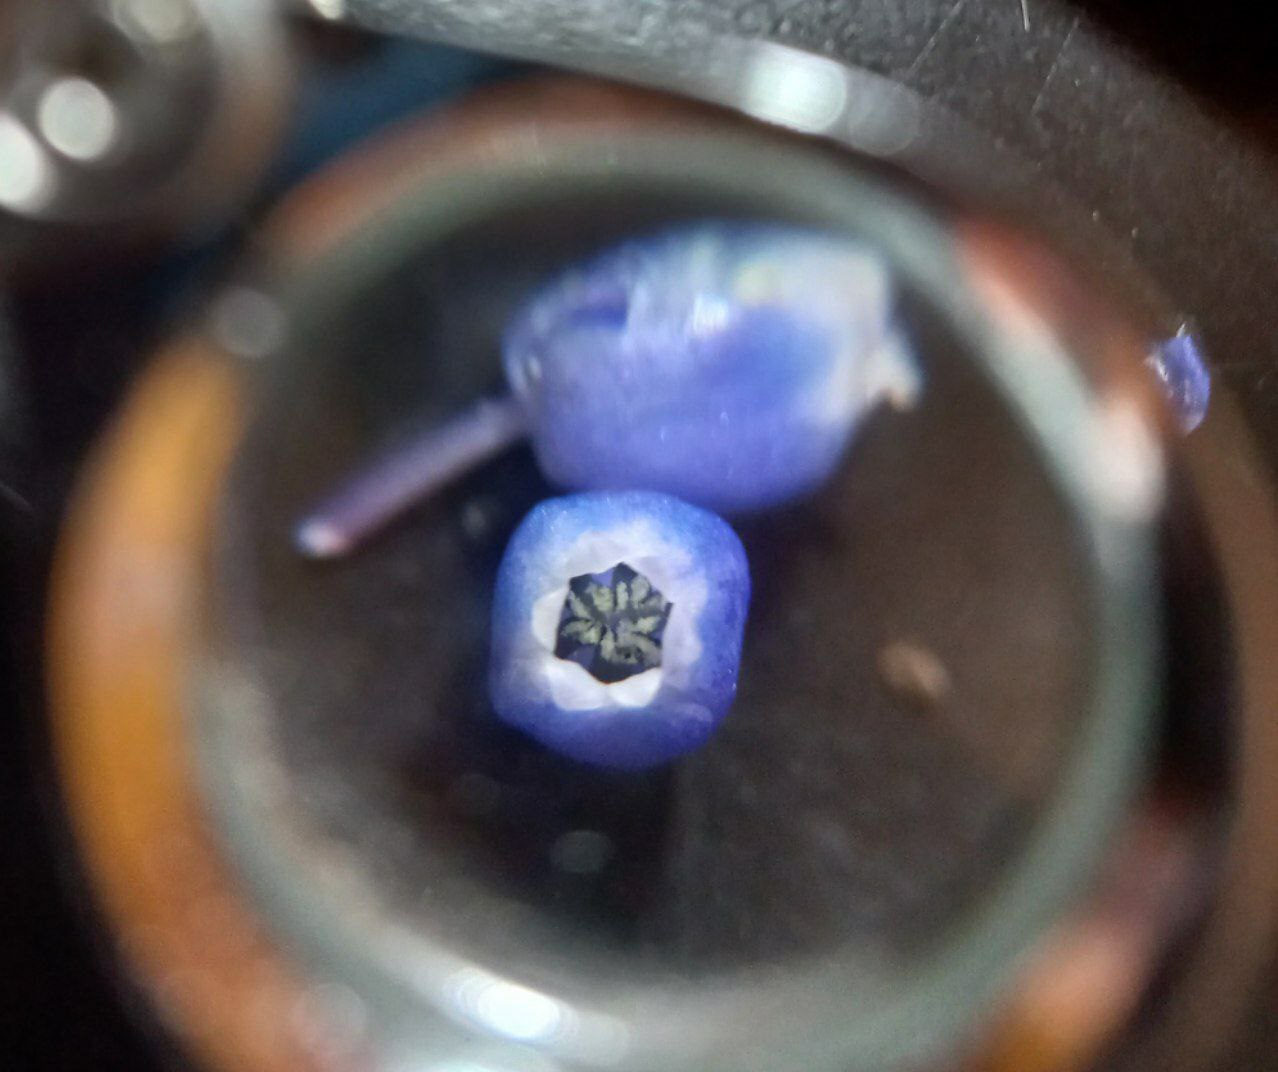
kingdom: Plantae
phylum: Tracheophyta
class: Liliopsida
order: Asparagales
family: Asparagaceae
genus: Muscari
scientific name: Muscari armeniacum
